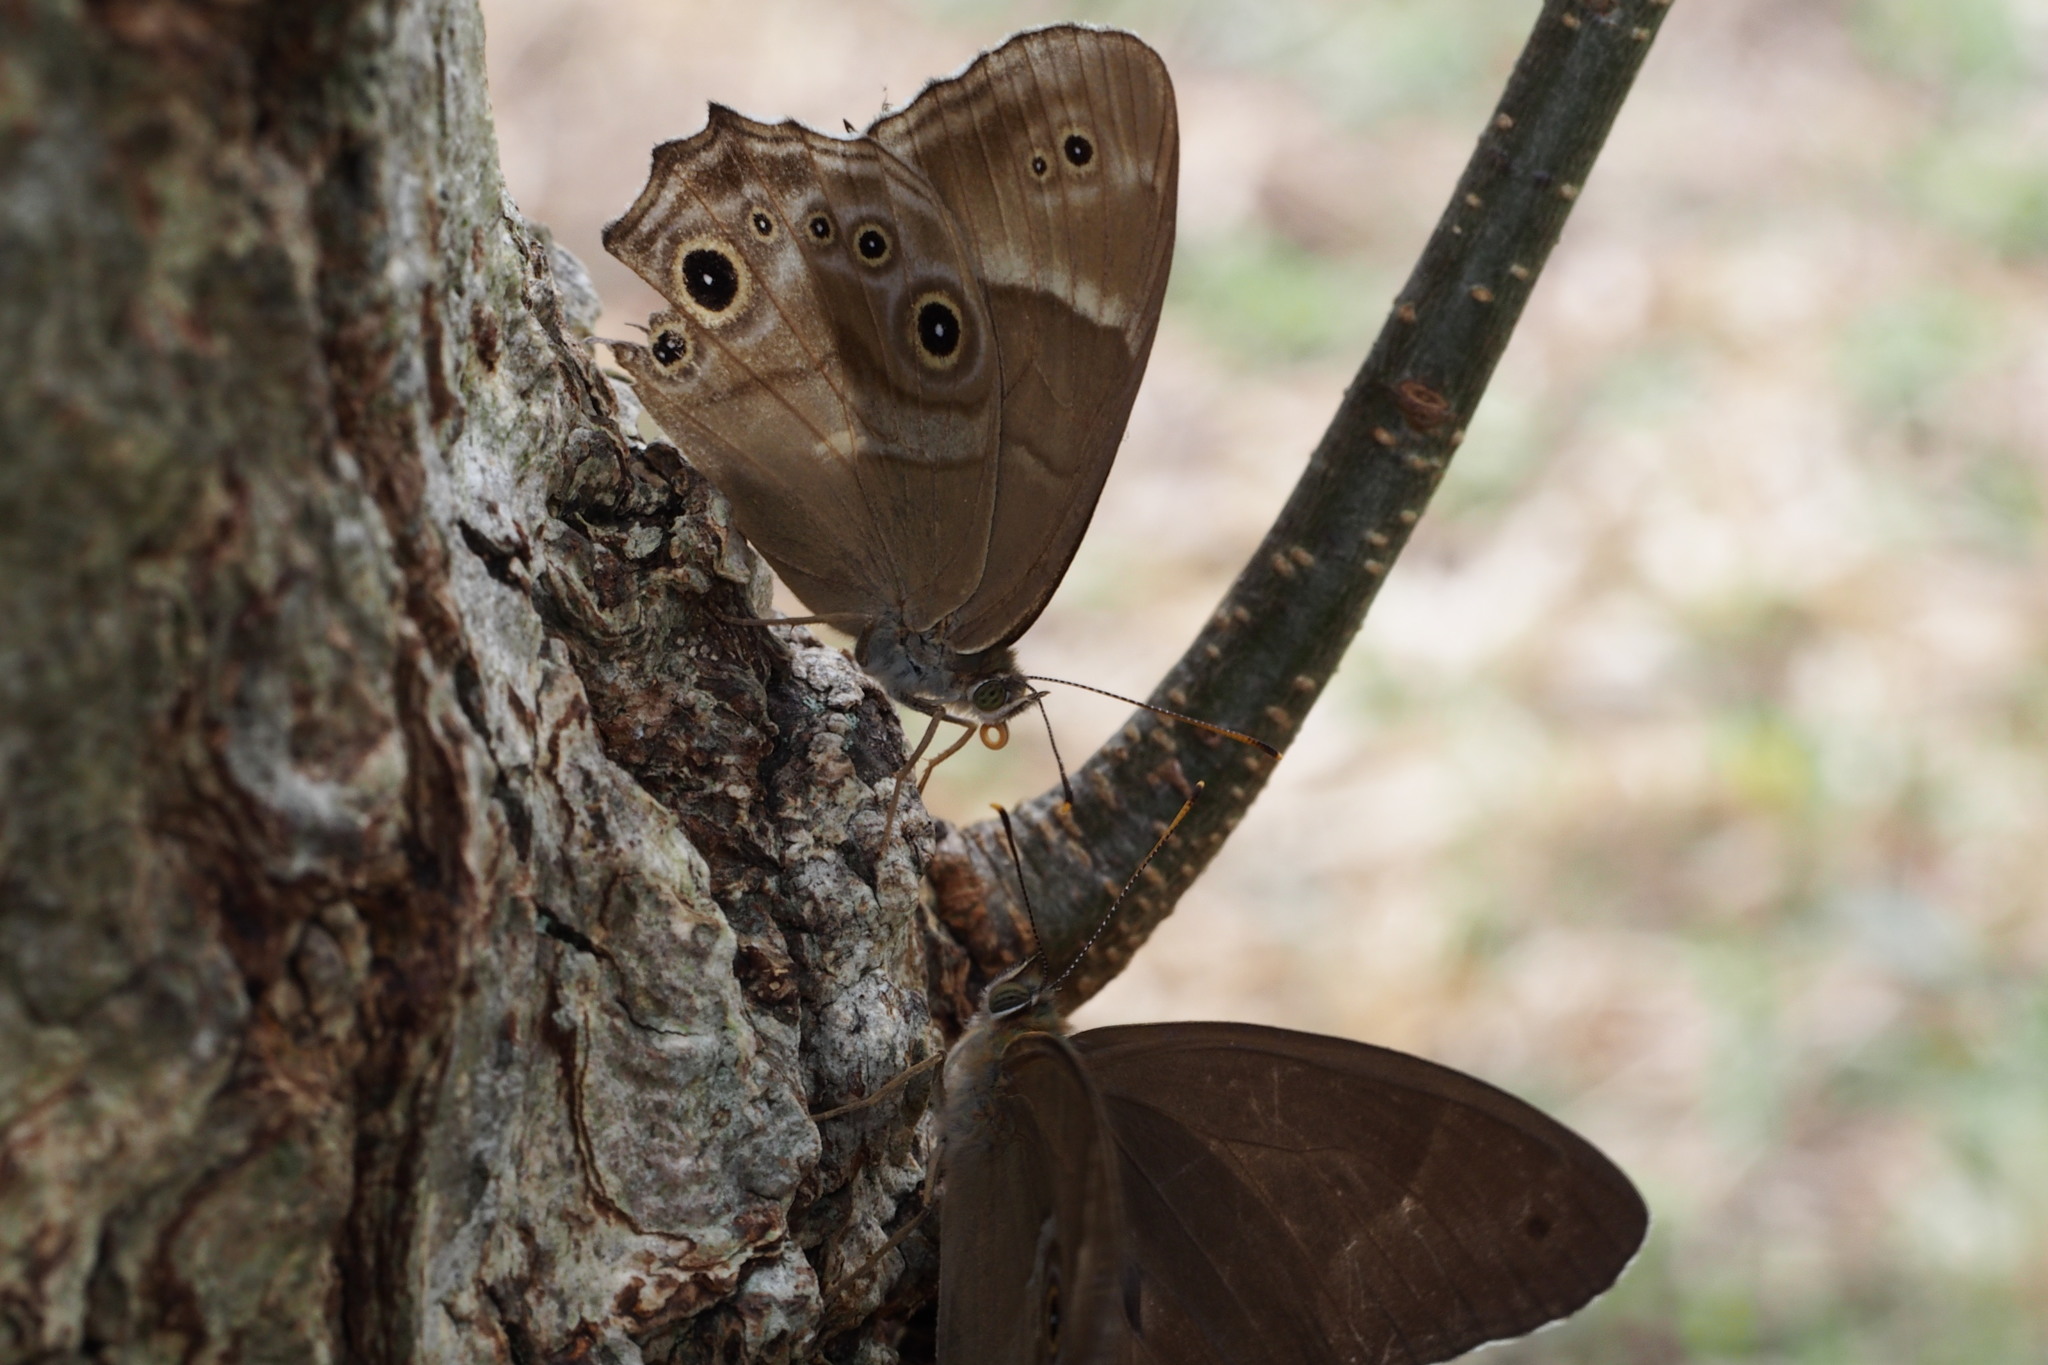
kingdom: Animalia
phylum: Arthropoda
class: Insecta
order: Lepidoptera
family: Nymphalidae
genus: Lethe
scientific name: Lethe sicelis
